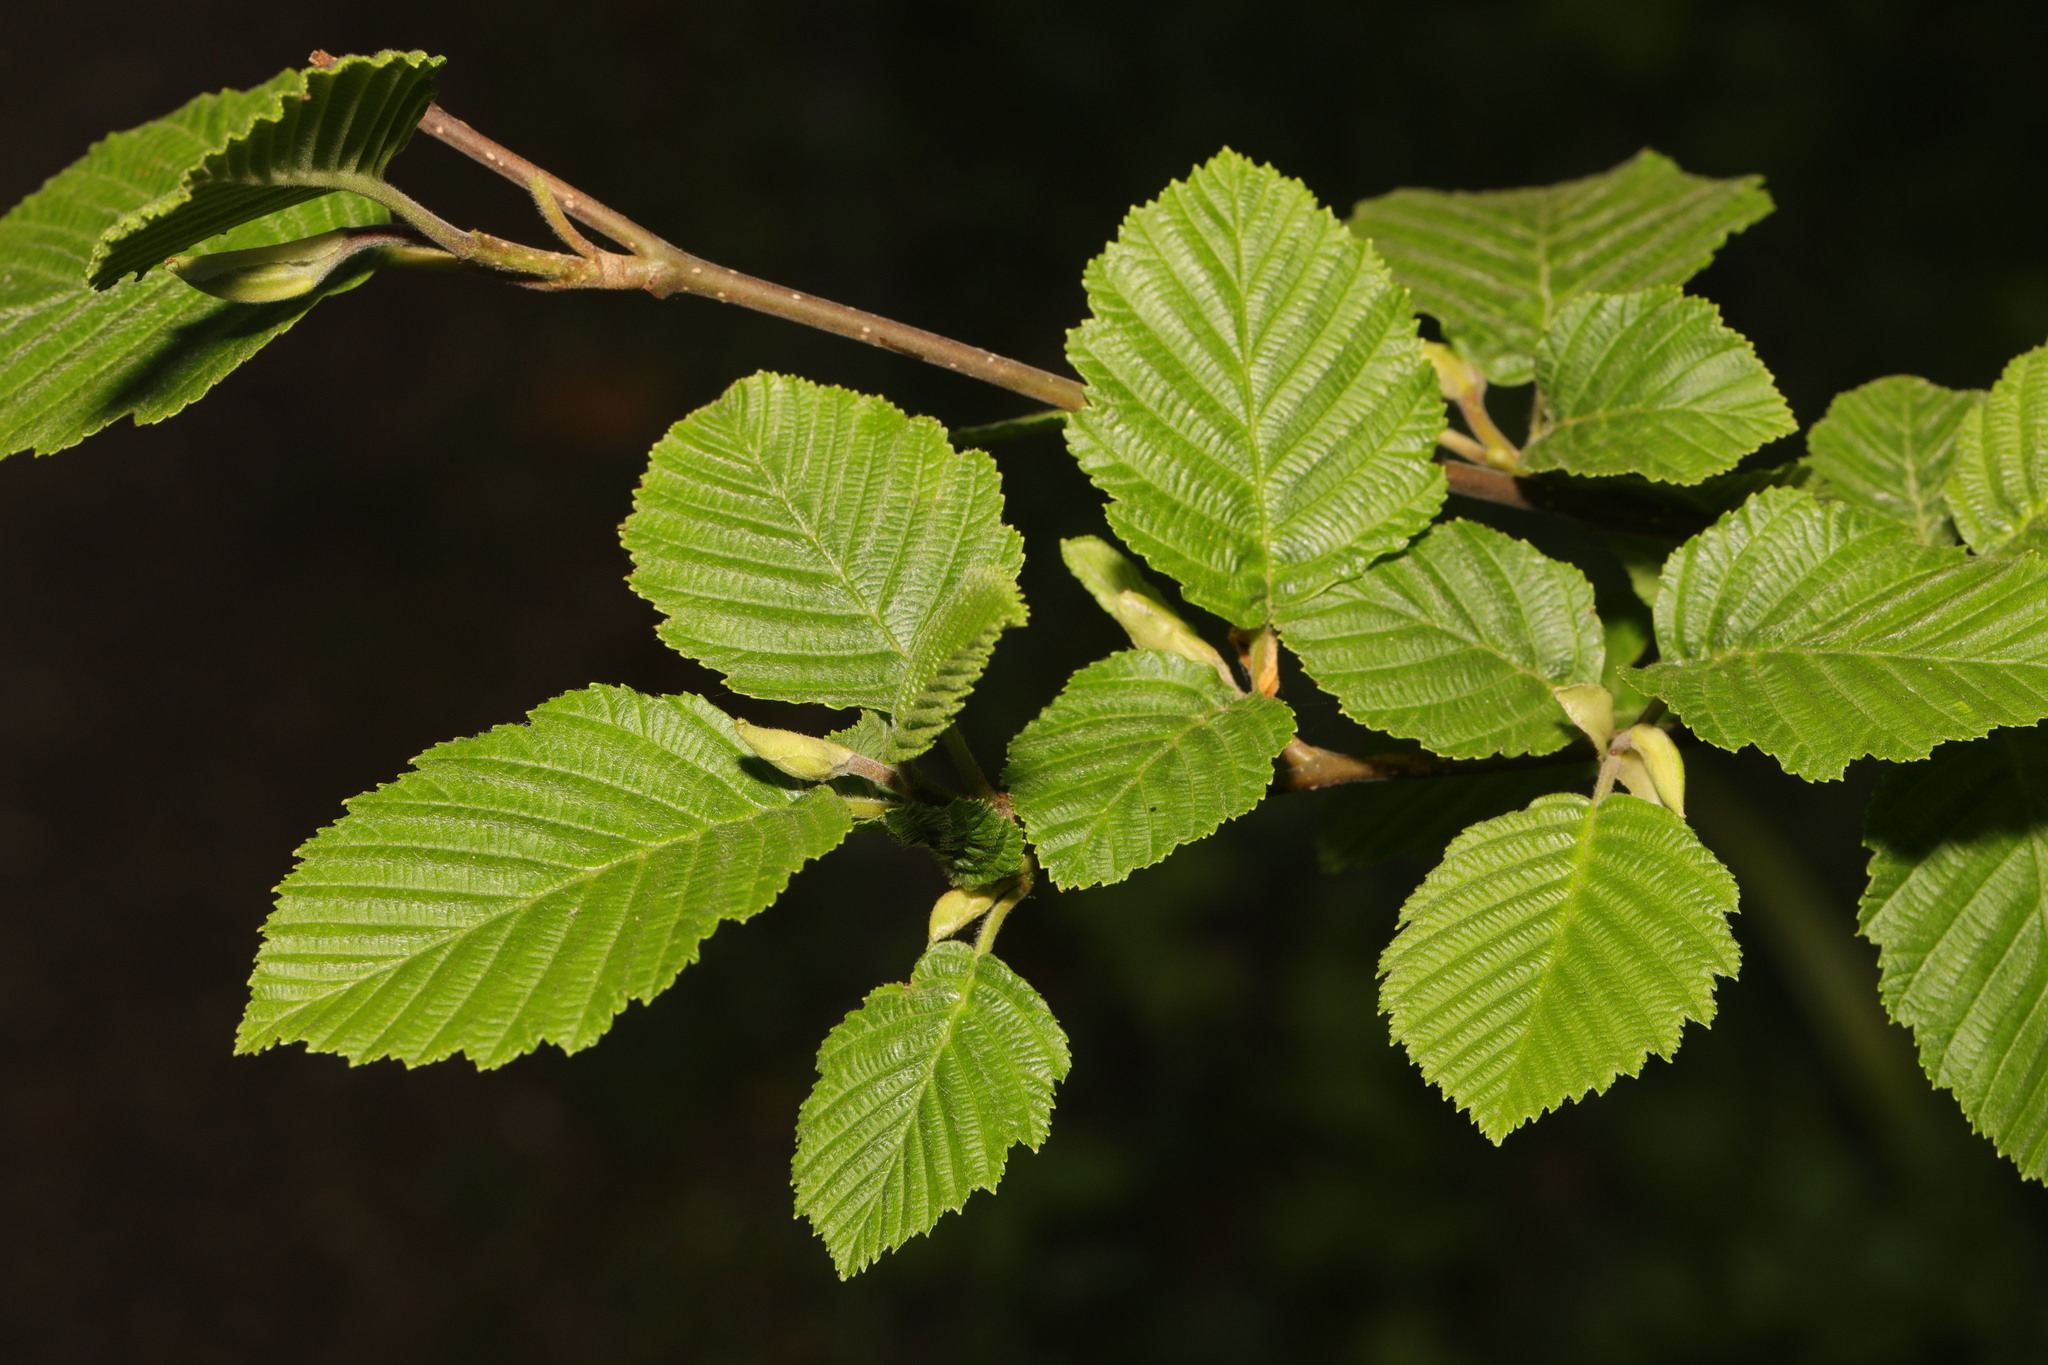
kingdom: Plantae
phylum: Tracheophyta
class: Magnoliopsida
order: Fagales
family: Betulaceae
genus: Alnus
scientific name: Alnus incana
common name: Grey alder
